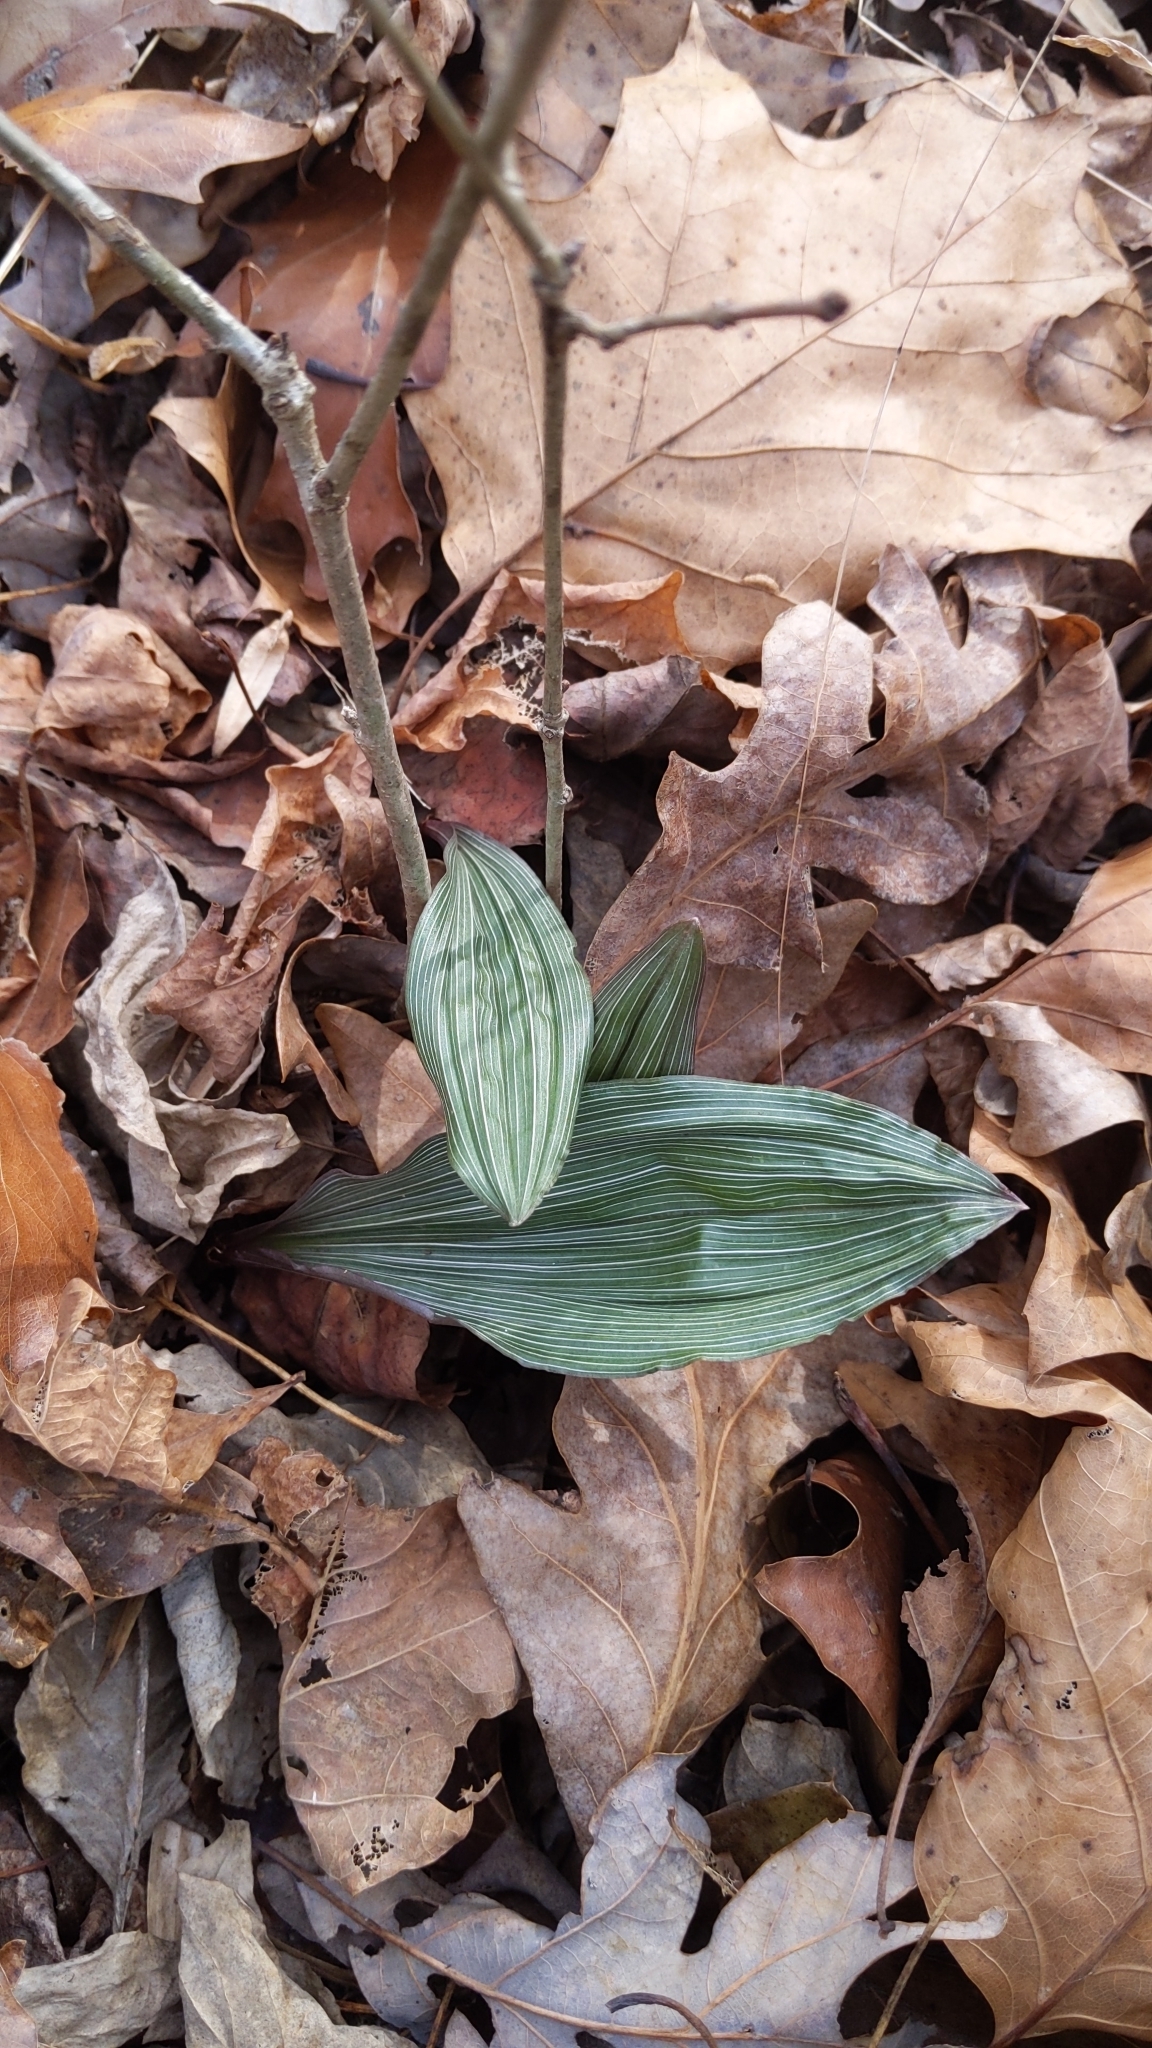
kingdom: Plantae
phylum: Tracheophyta
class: Liliopsida
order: Asparagales
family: Orchidaceae
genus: Aplectrum
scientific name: Aplectrum hyemale
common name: Adam-and-eve
